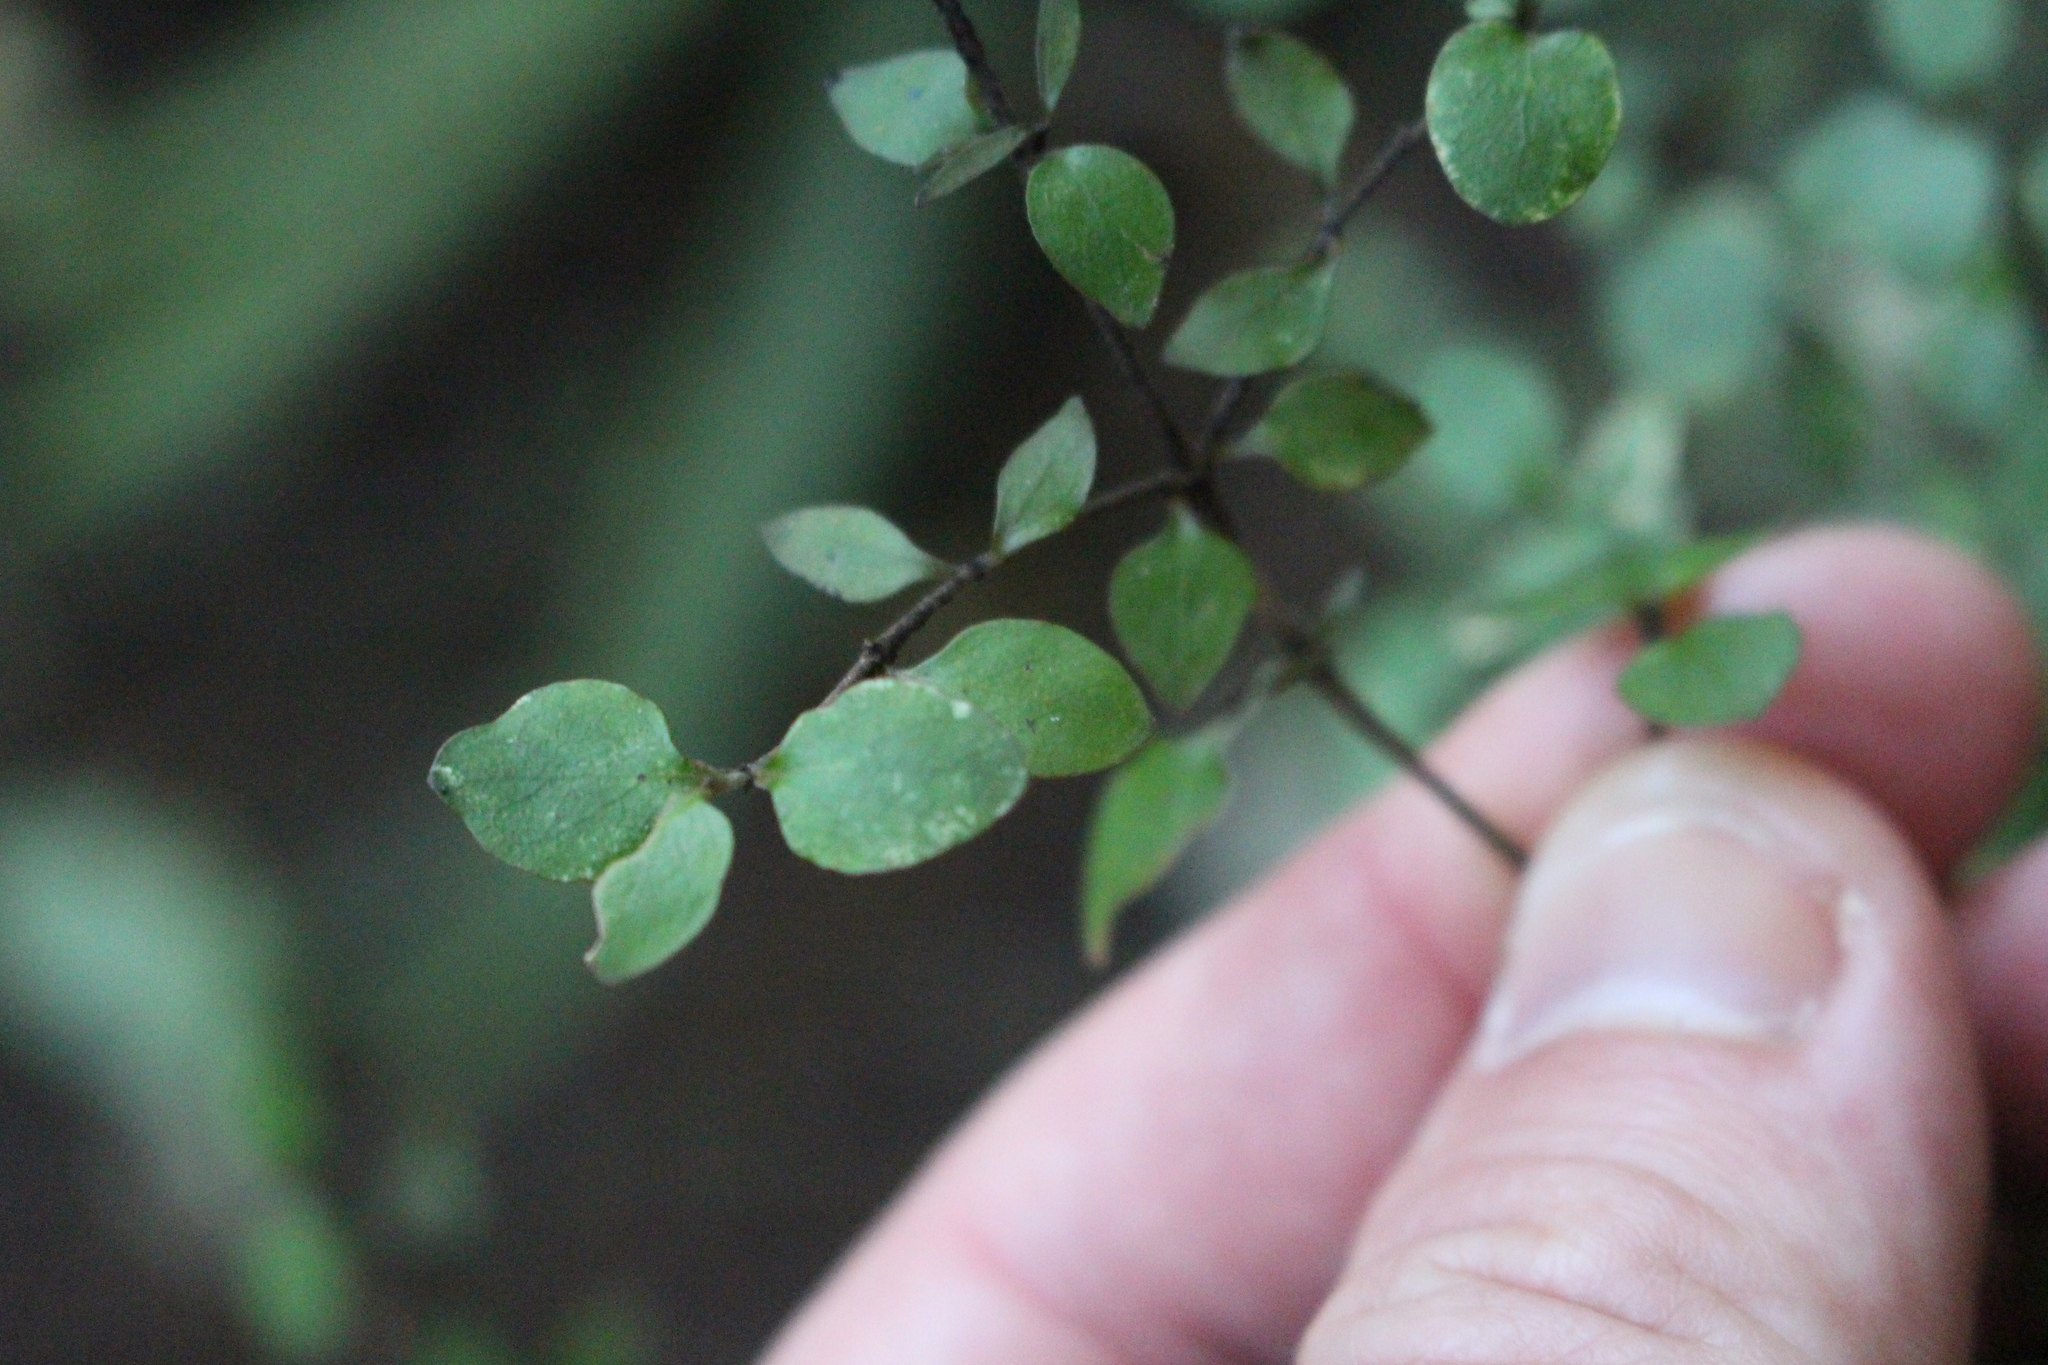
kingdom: Plantae
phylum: Tracheophyta
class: Magnoliopsida
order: Gentianales
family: Rubiaceae
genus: Coprosma
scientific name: Coprosma rhamnoides
